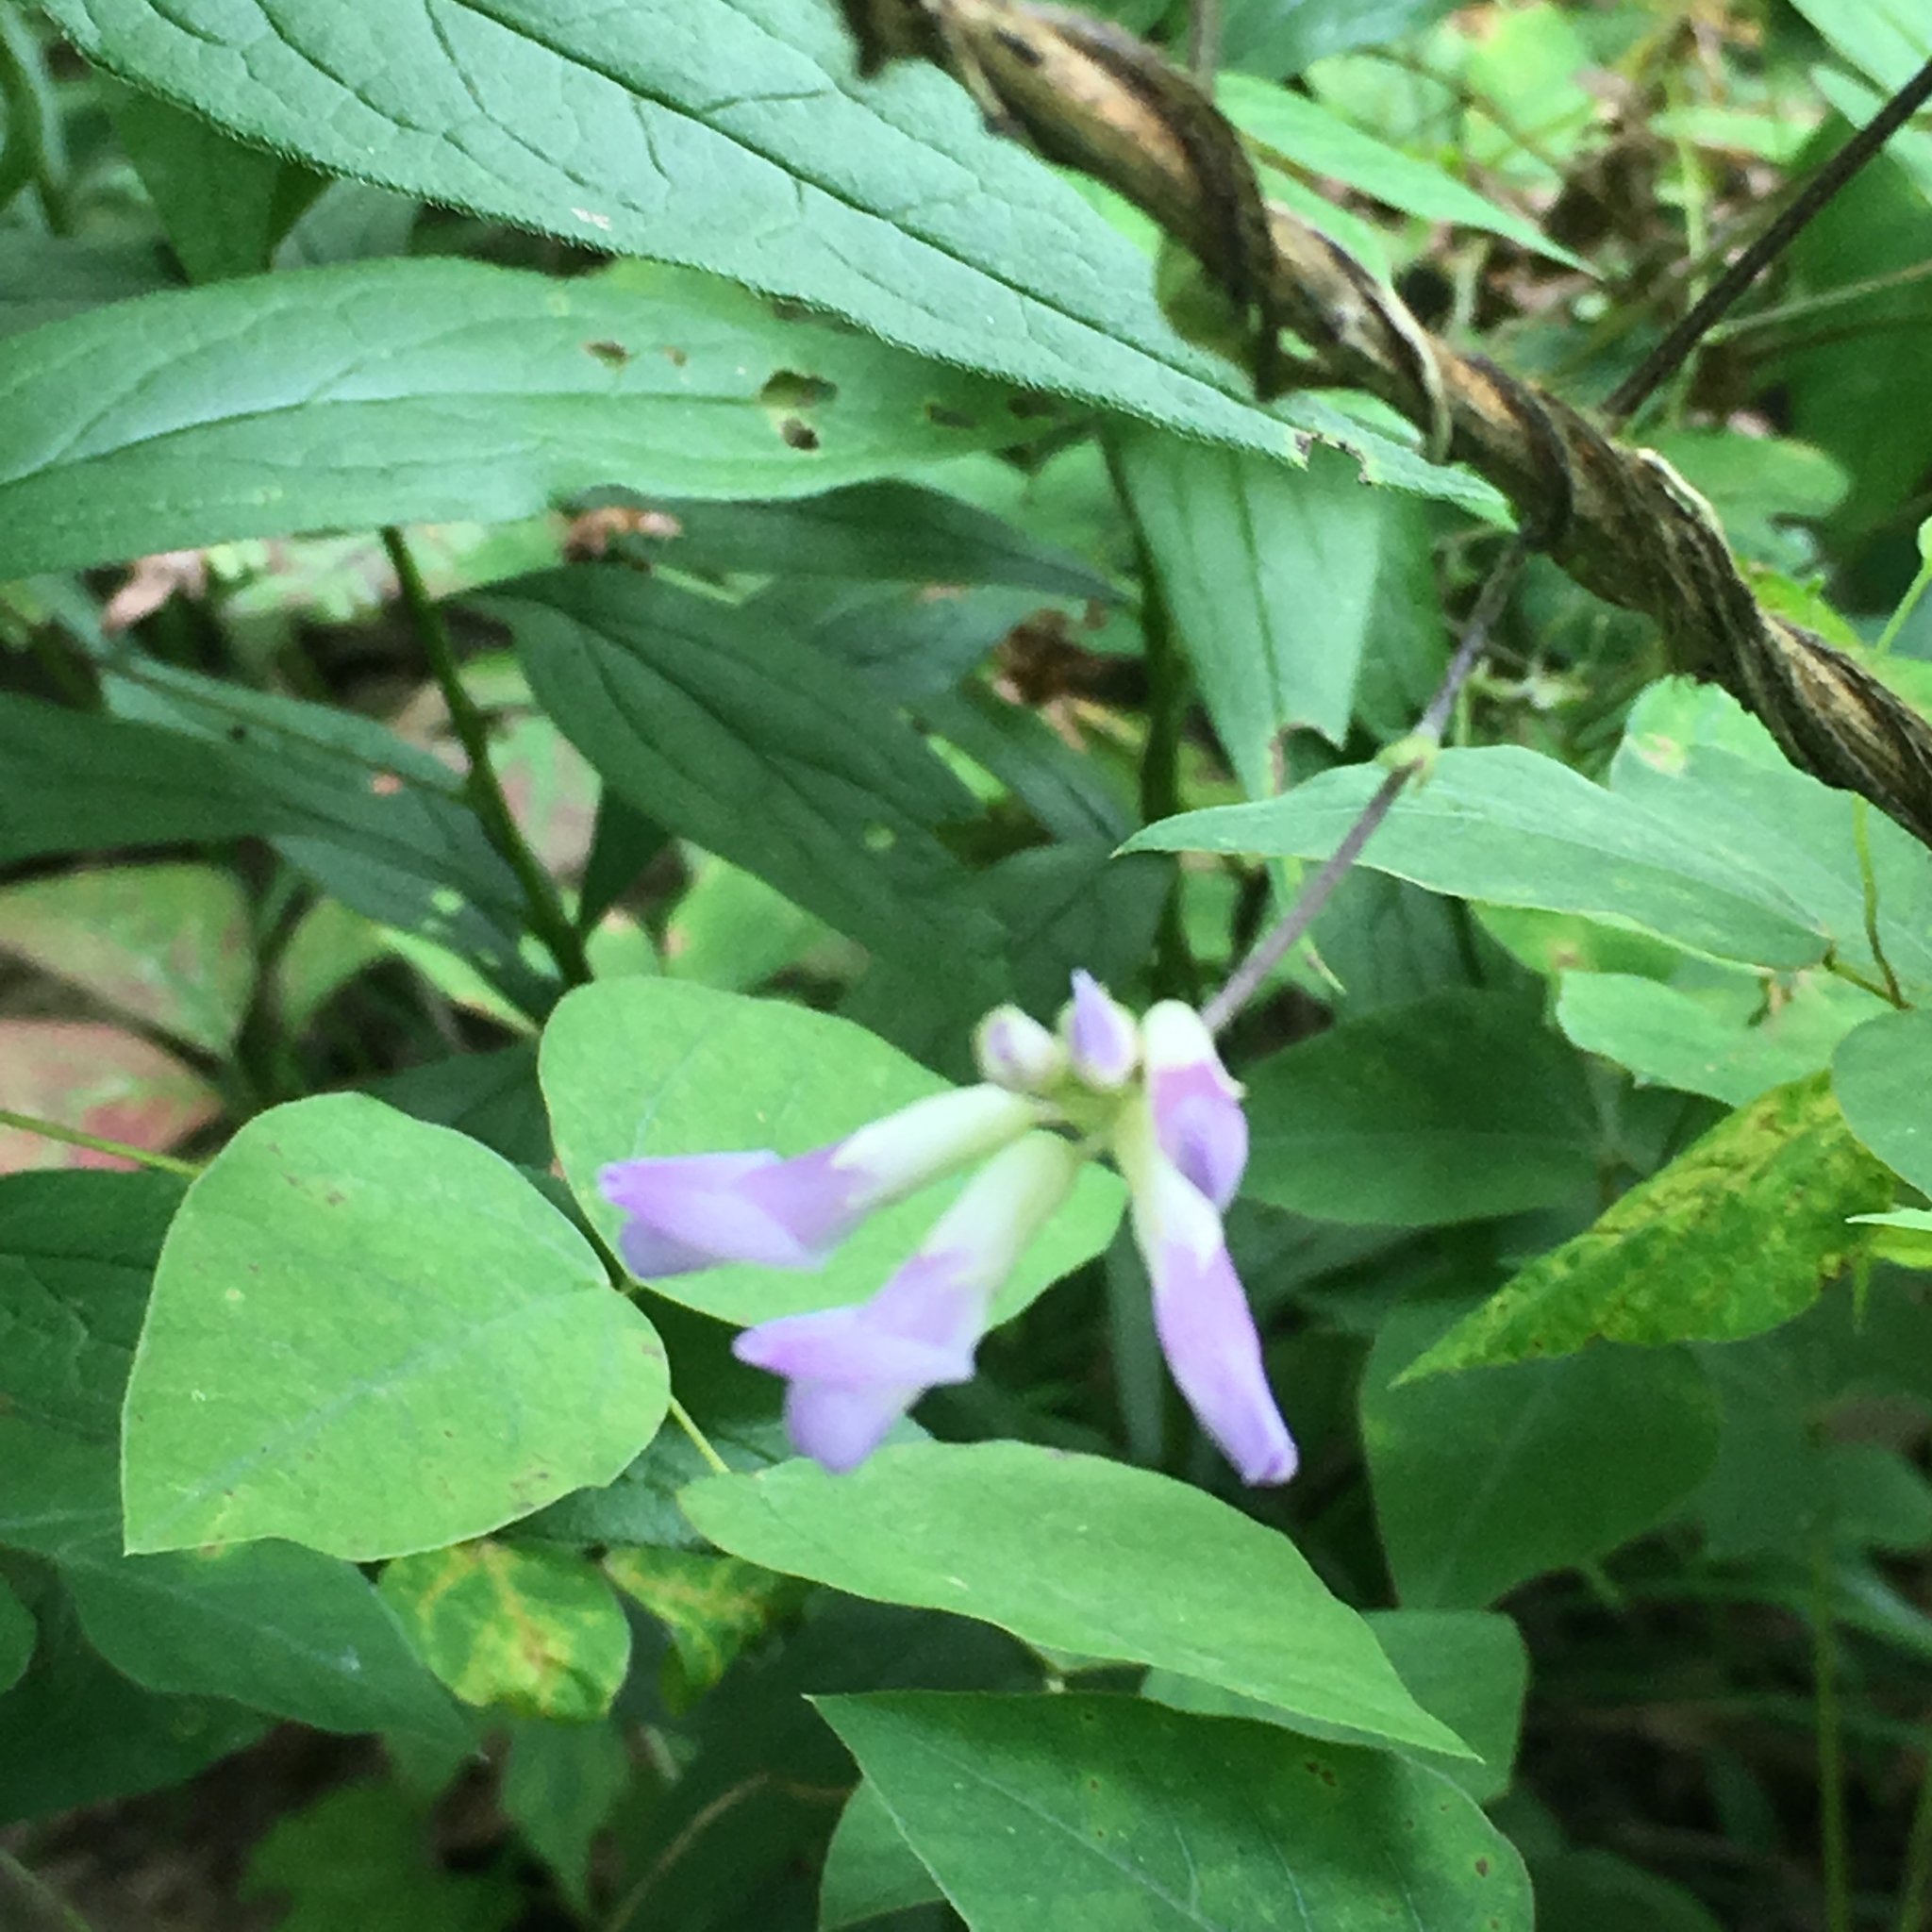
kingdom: Plantae
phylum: Tracheophyta
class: Magnoliopsida
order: Fabales
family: Fabaceae
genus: Amphicarpaea
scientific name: Amphicarpaea bracteata
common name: American hog peanut
